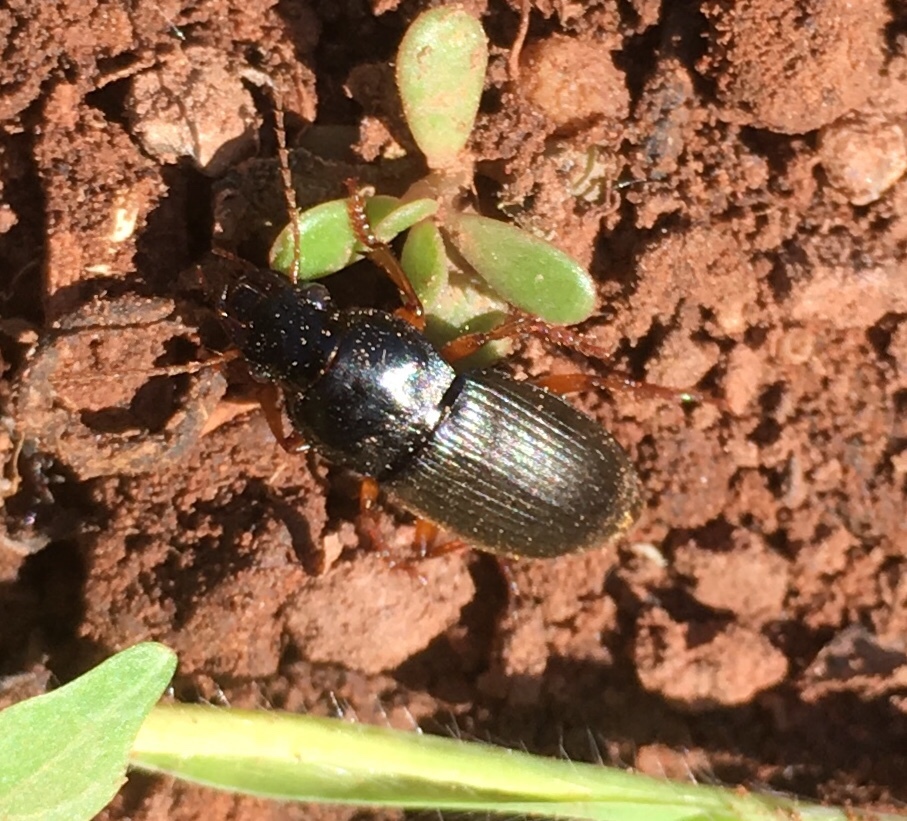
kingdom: Animalia
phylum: Arthropoda
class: Insecta
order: Coleoptera
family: Carabidae
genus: Harpalus
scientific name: Harpalus rufipes
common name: Strawberry harp ground beetle
